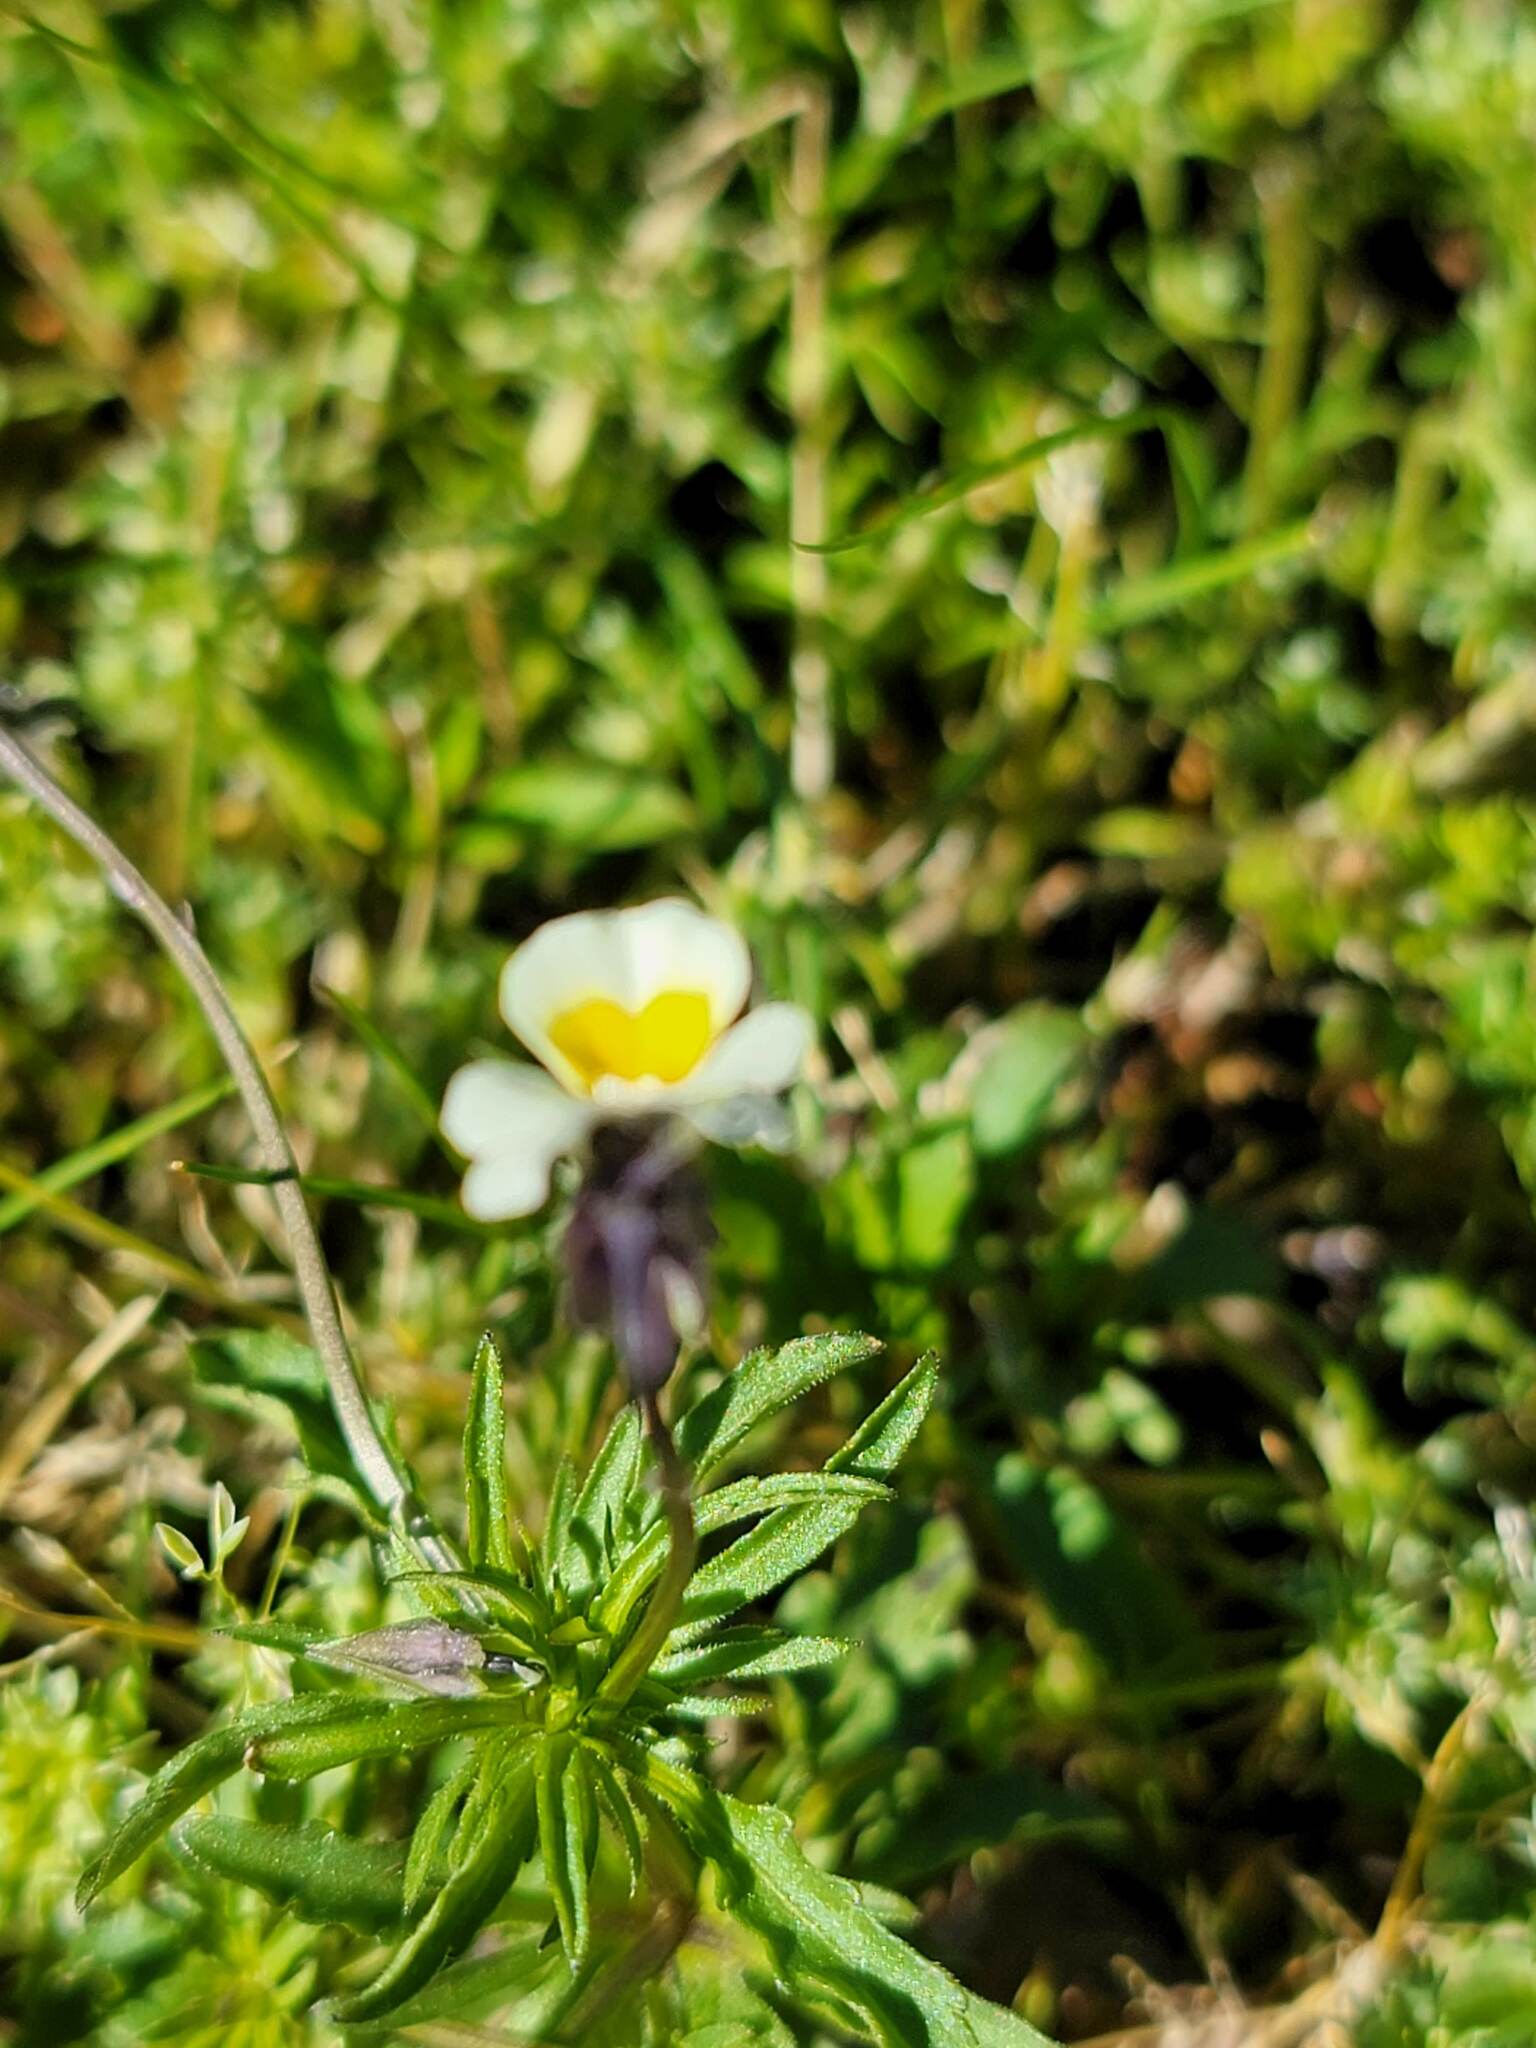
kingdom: Plantae
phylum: Tracheophyta
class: Magnoliopsida
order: Malpighiales
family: Violaceae
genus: Viola
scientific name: Viola arvensis
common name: Field pansy
